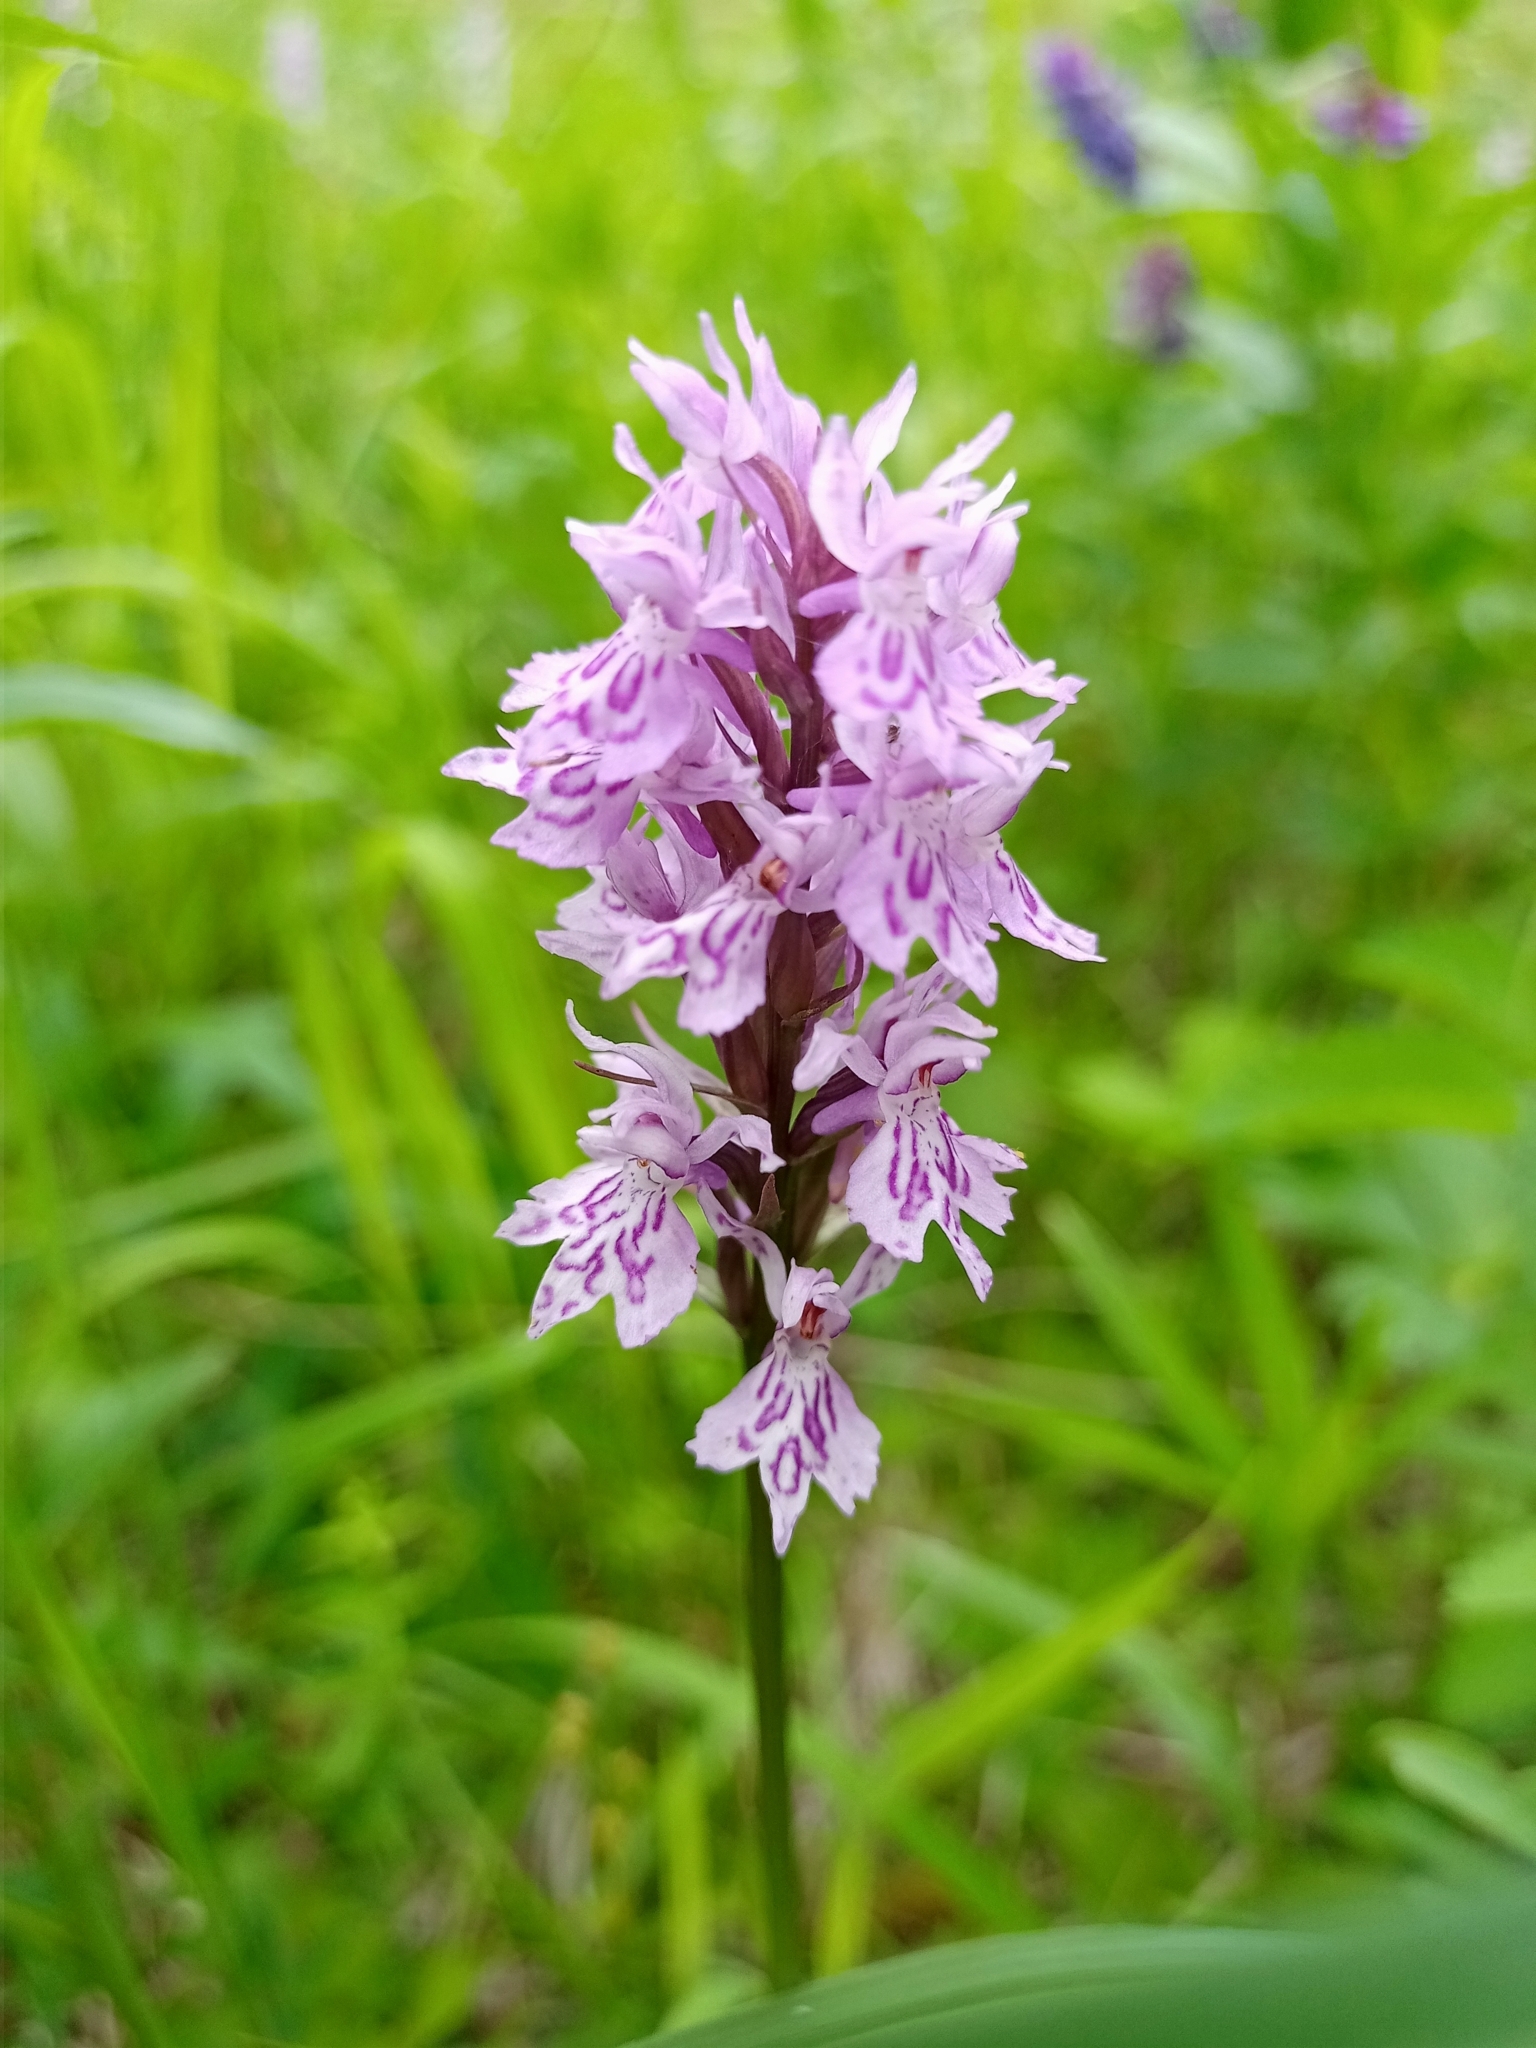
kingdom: Plantae
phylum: Tracheophyta
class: Liliopsida
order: Asparagales
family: Orchidaceae
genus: Dactylorhiza
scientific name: Dactylorhiza maculata
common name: Heath spotted-orchid
